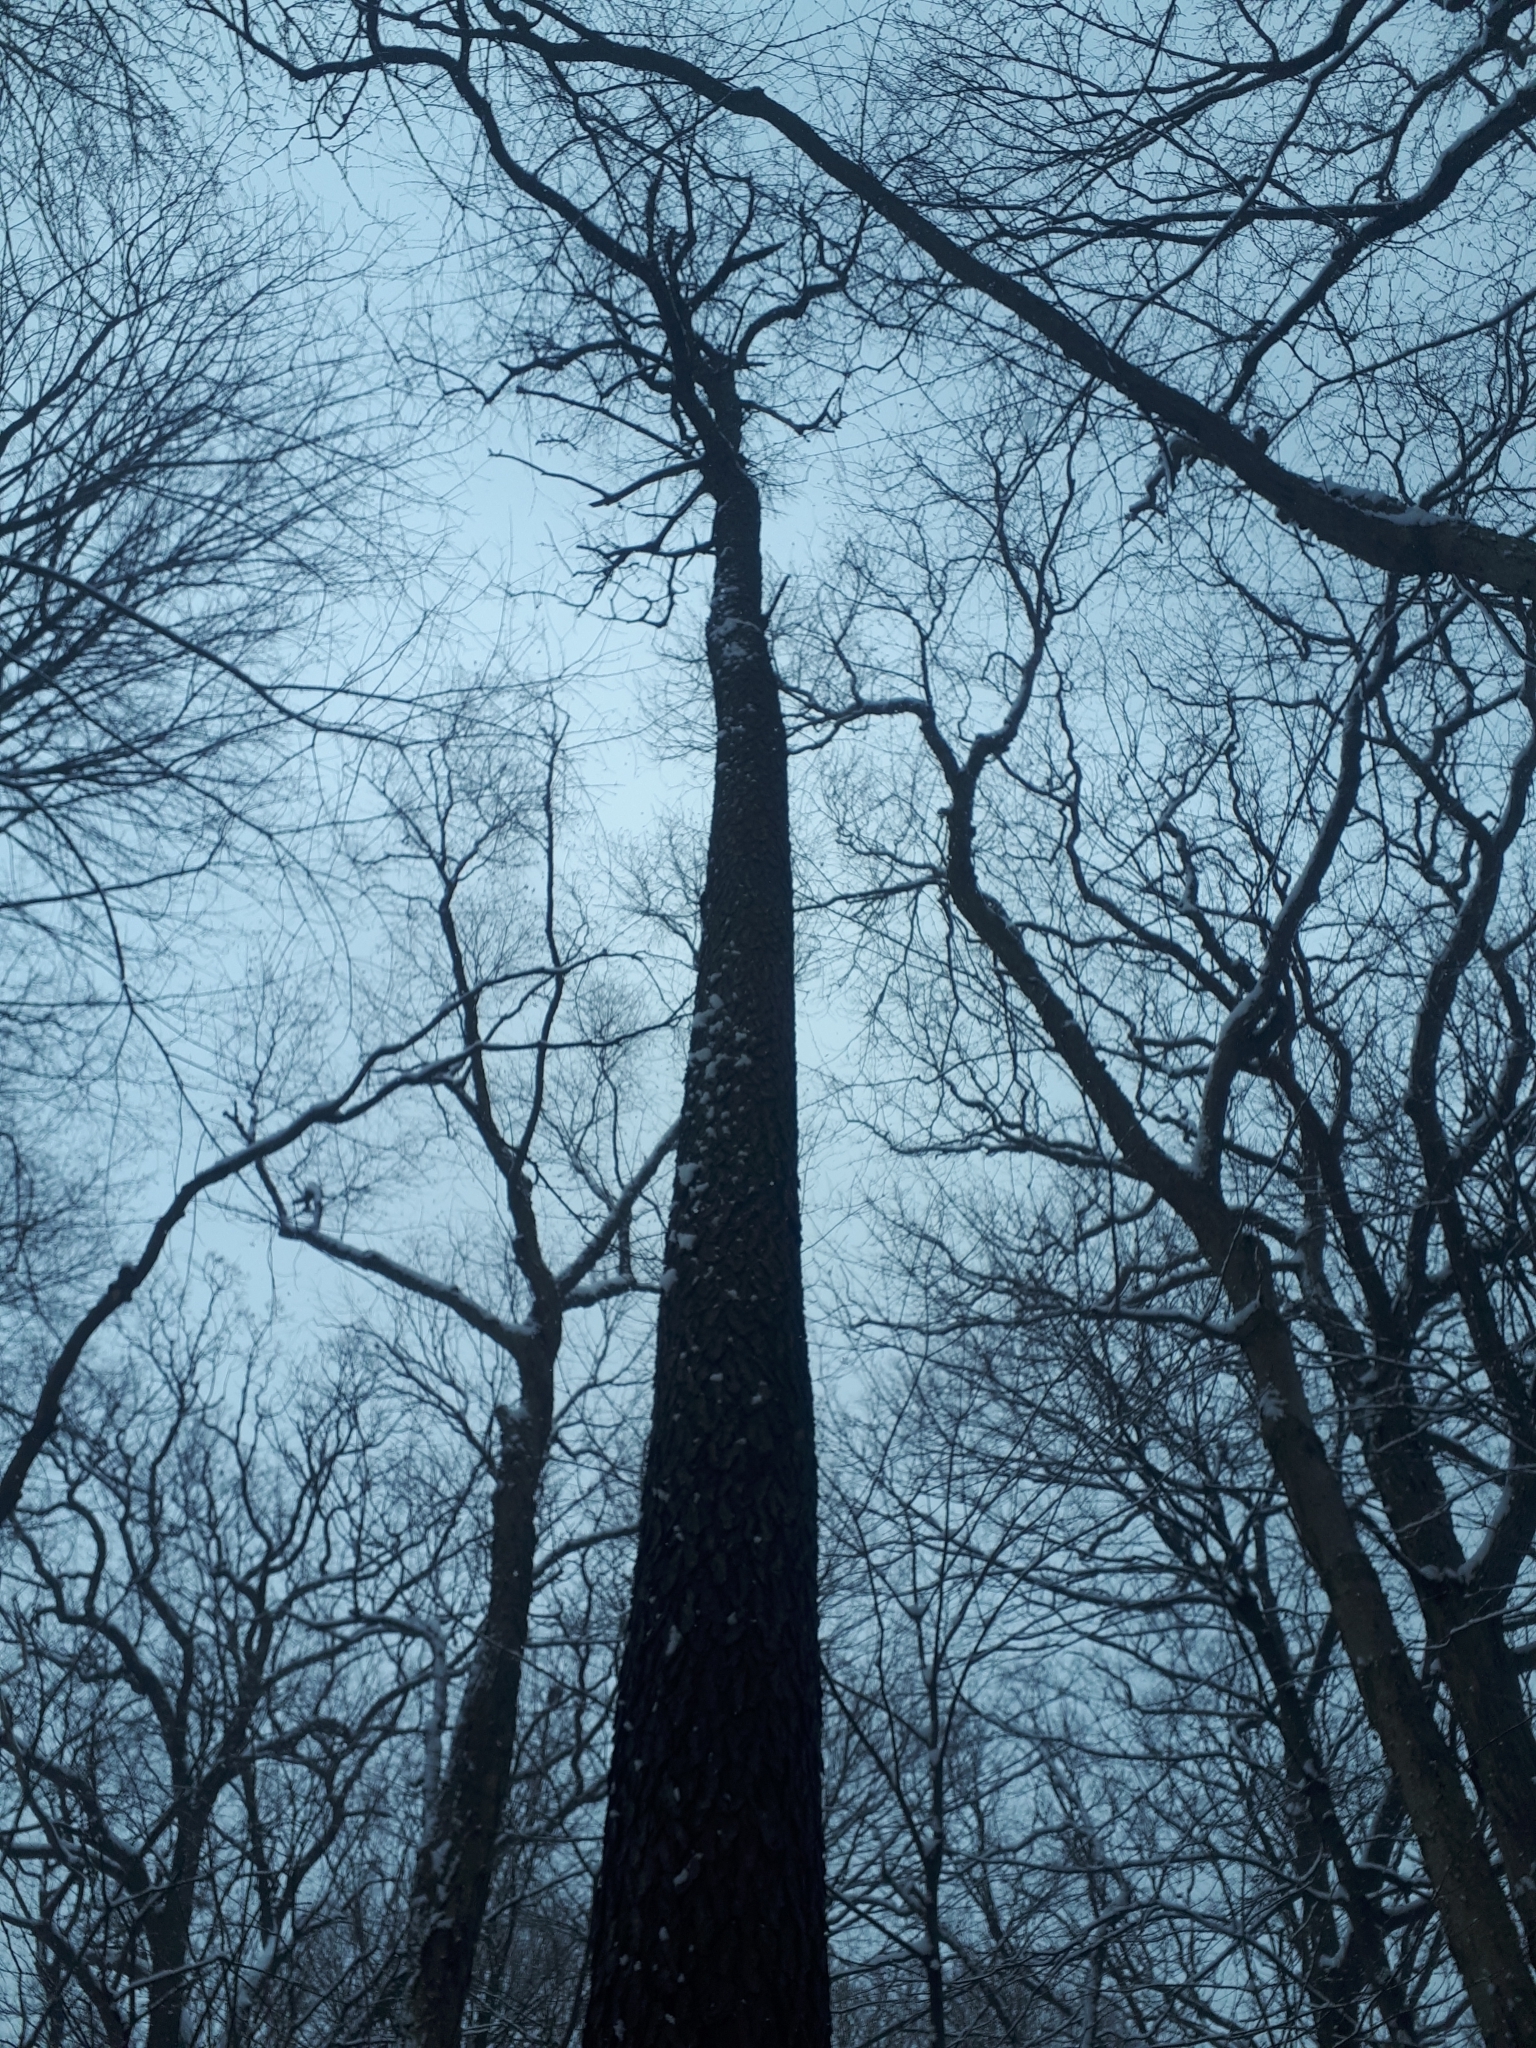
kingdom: Plantae
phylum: Tracheophyta
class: Magnoliopsida
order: Rosales
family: Rosaceae
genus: Prunus
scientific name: Prunus serotina
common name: Black cherry
